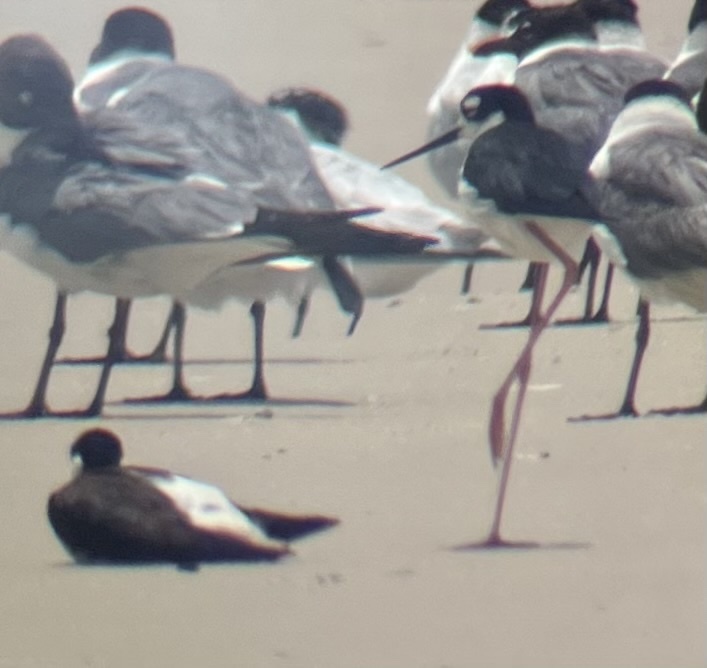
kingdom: Animalia
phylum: Chordata
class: Aves
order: Charadriiformes
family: Recurvirostridae
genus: Himantopus
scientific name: Himantopus mexicanus
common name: Black-necked stilt
